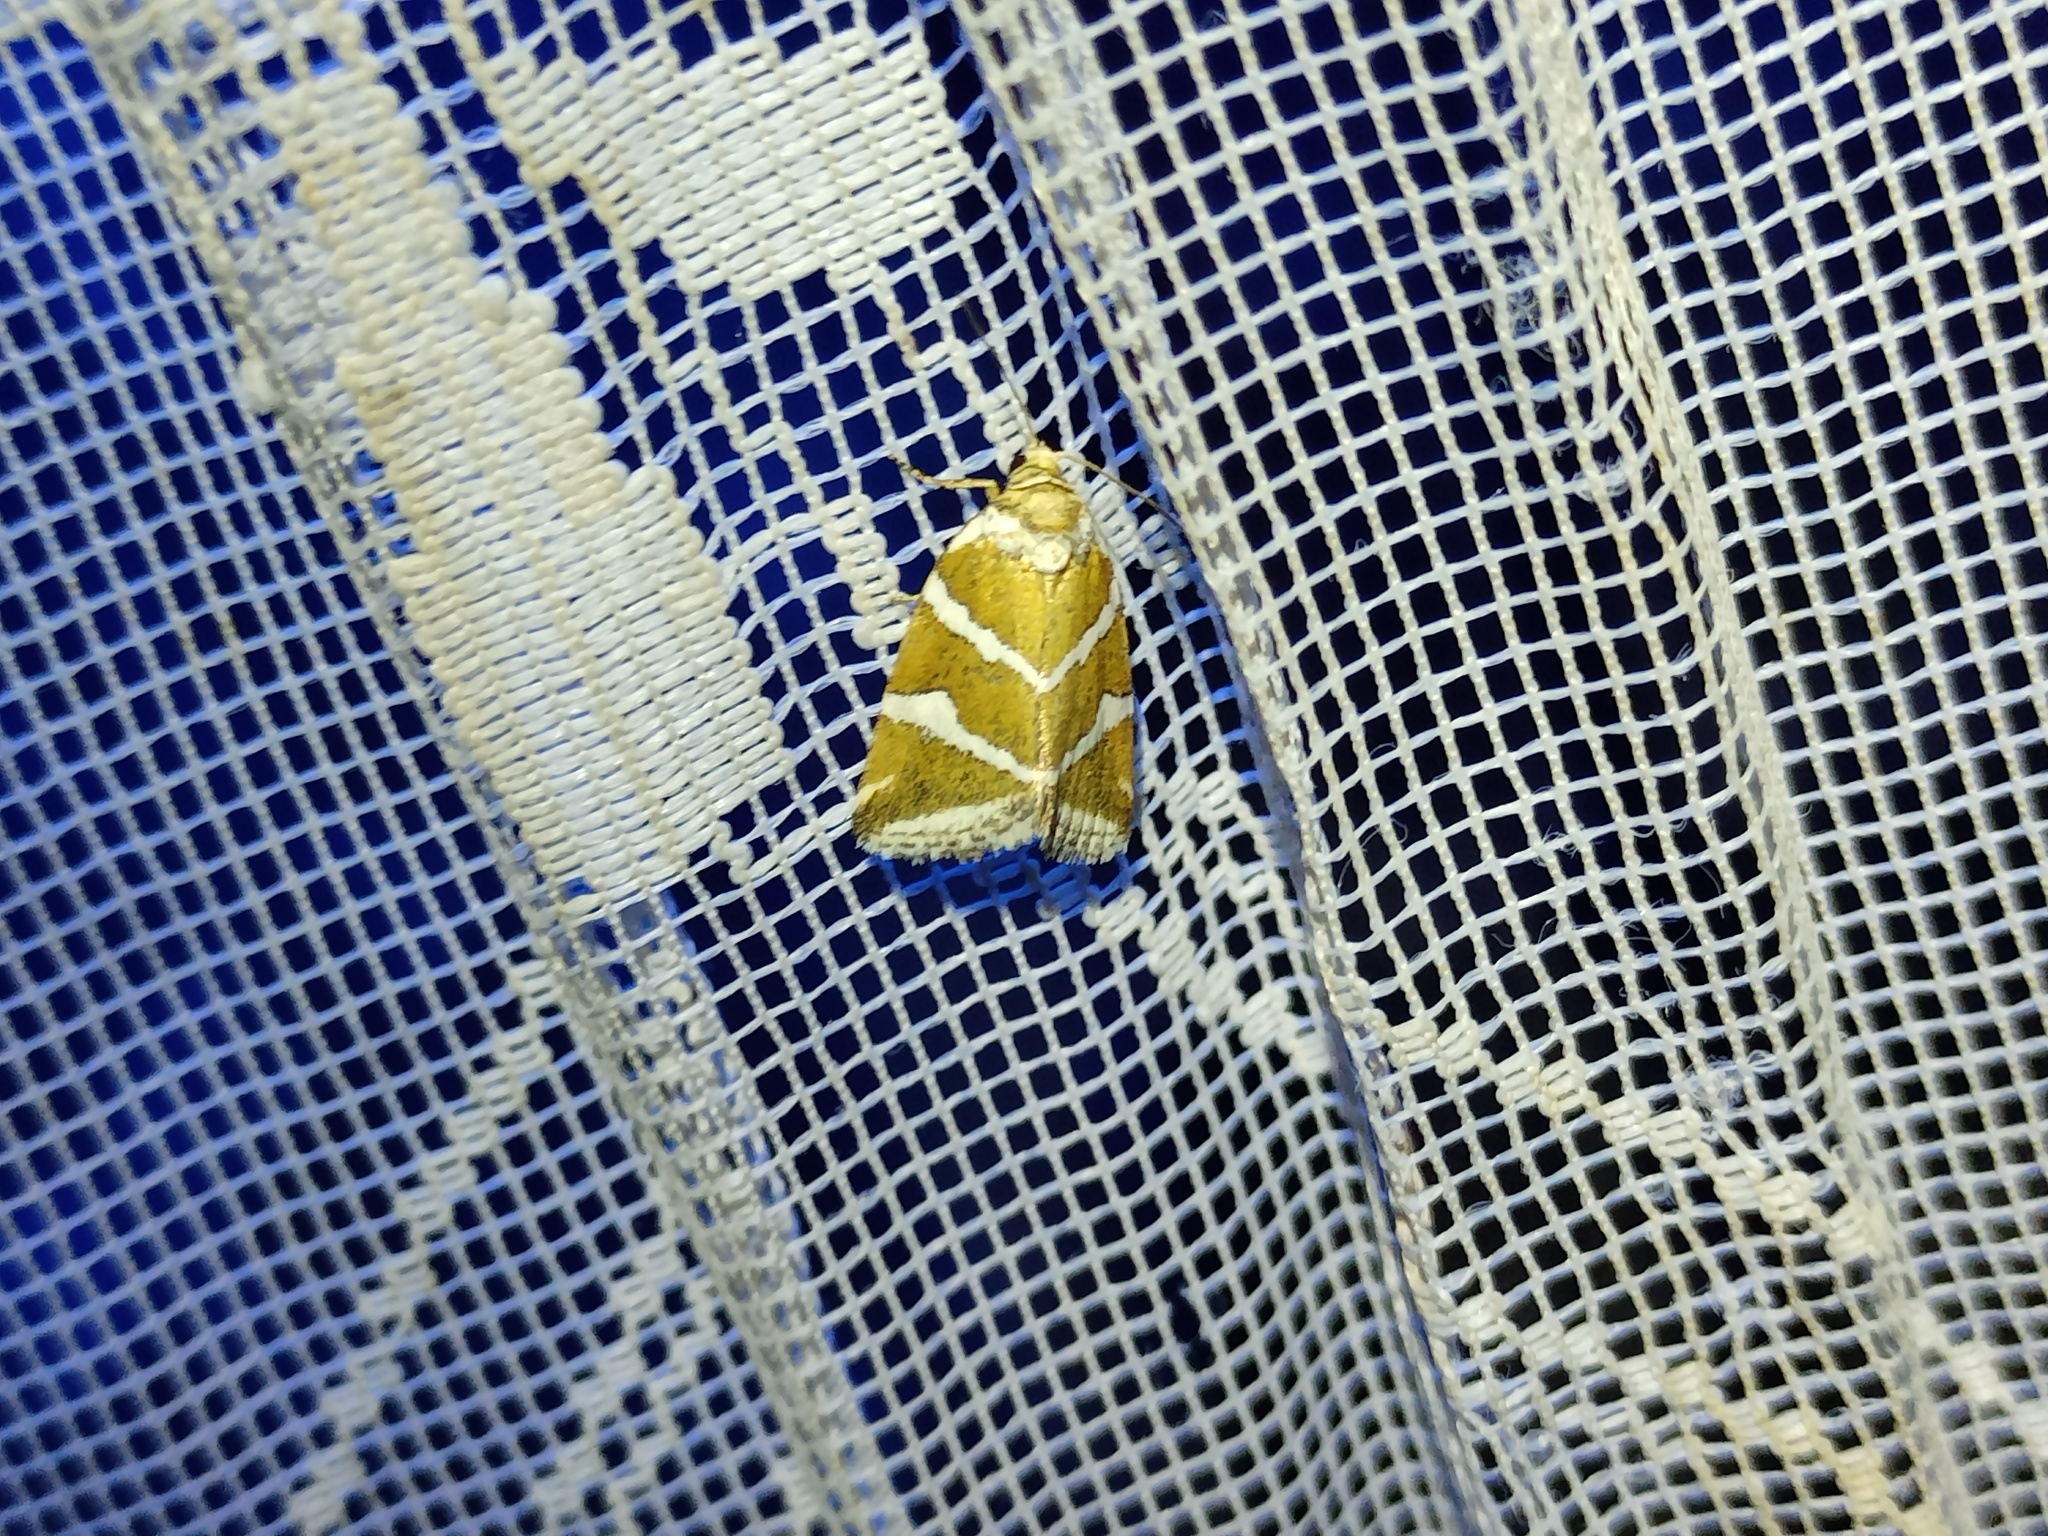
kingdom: Animalia
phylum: Arthropoda
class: Insecta
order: Lepidoptera
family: Noctuidae
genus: Deltote
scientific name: Deltote bankiana
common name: Silver barred
